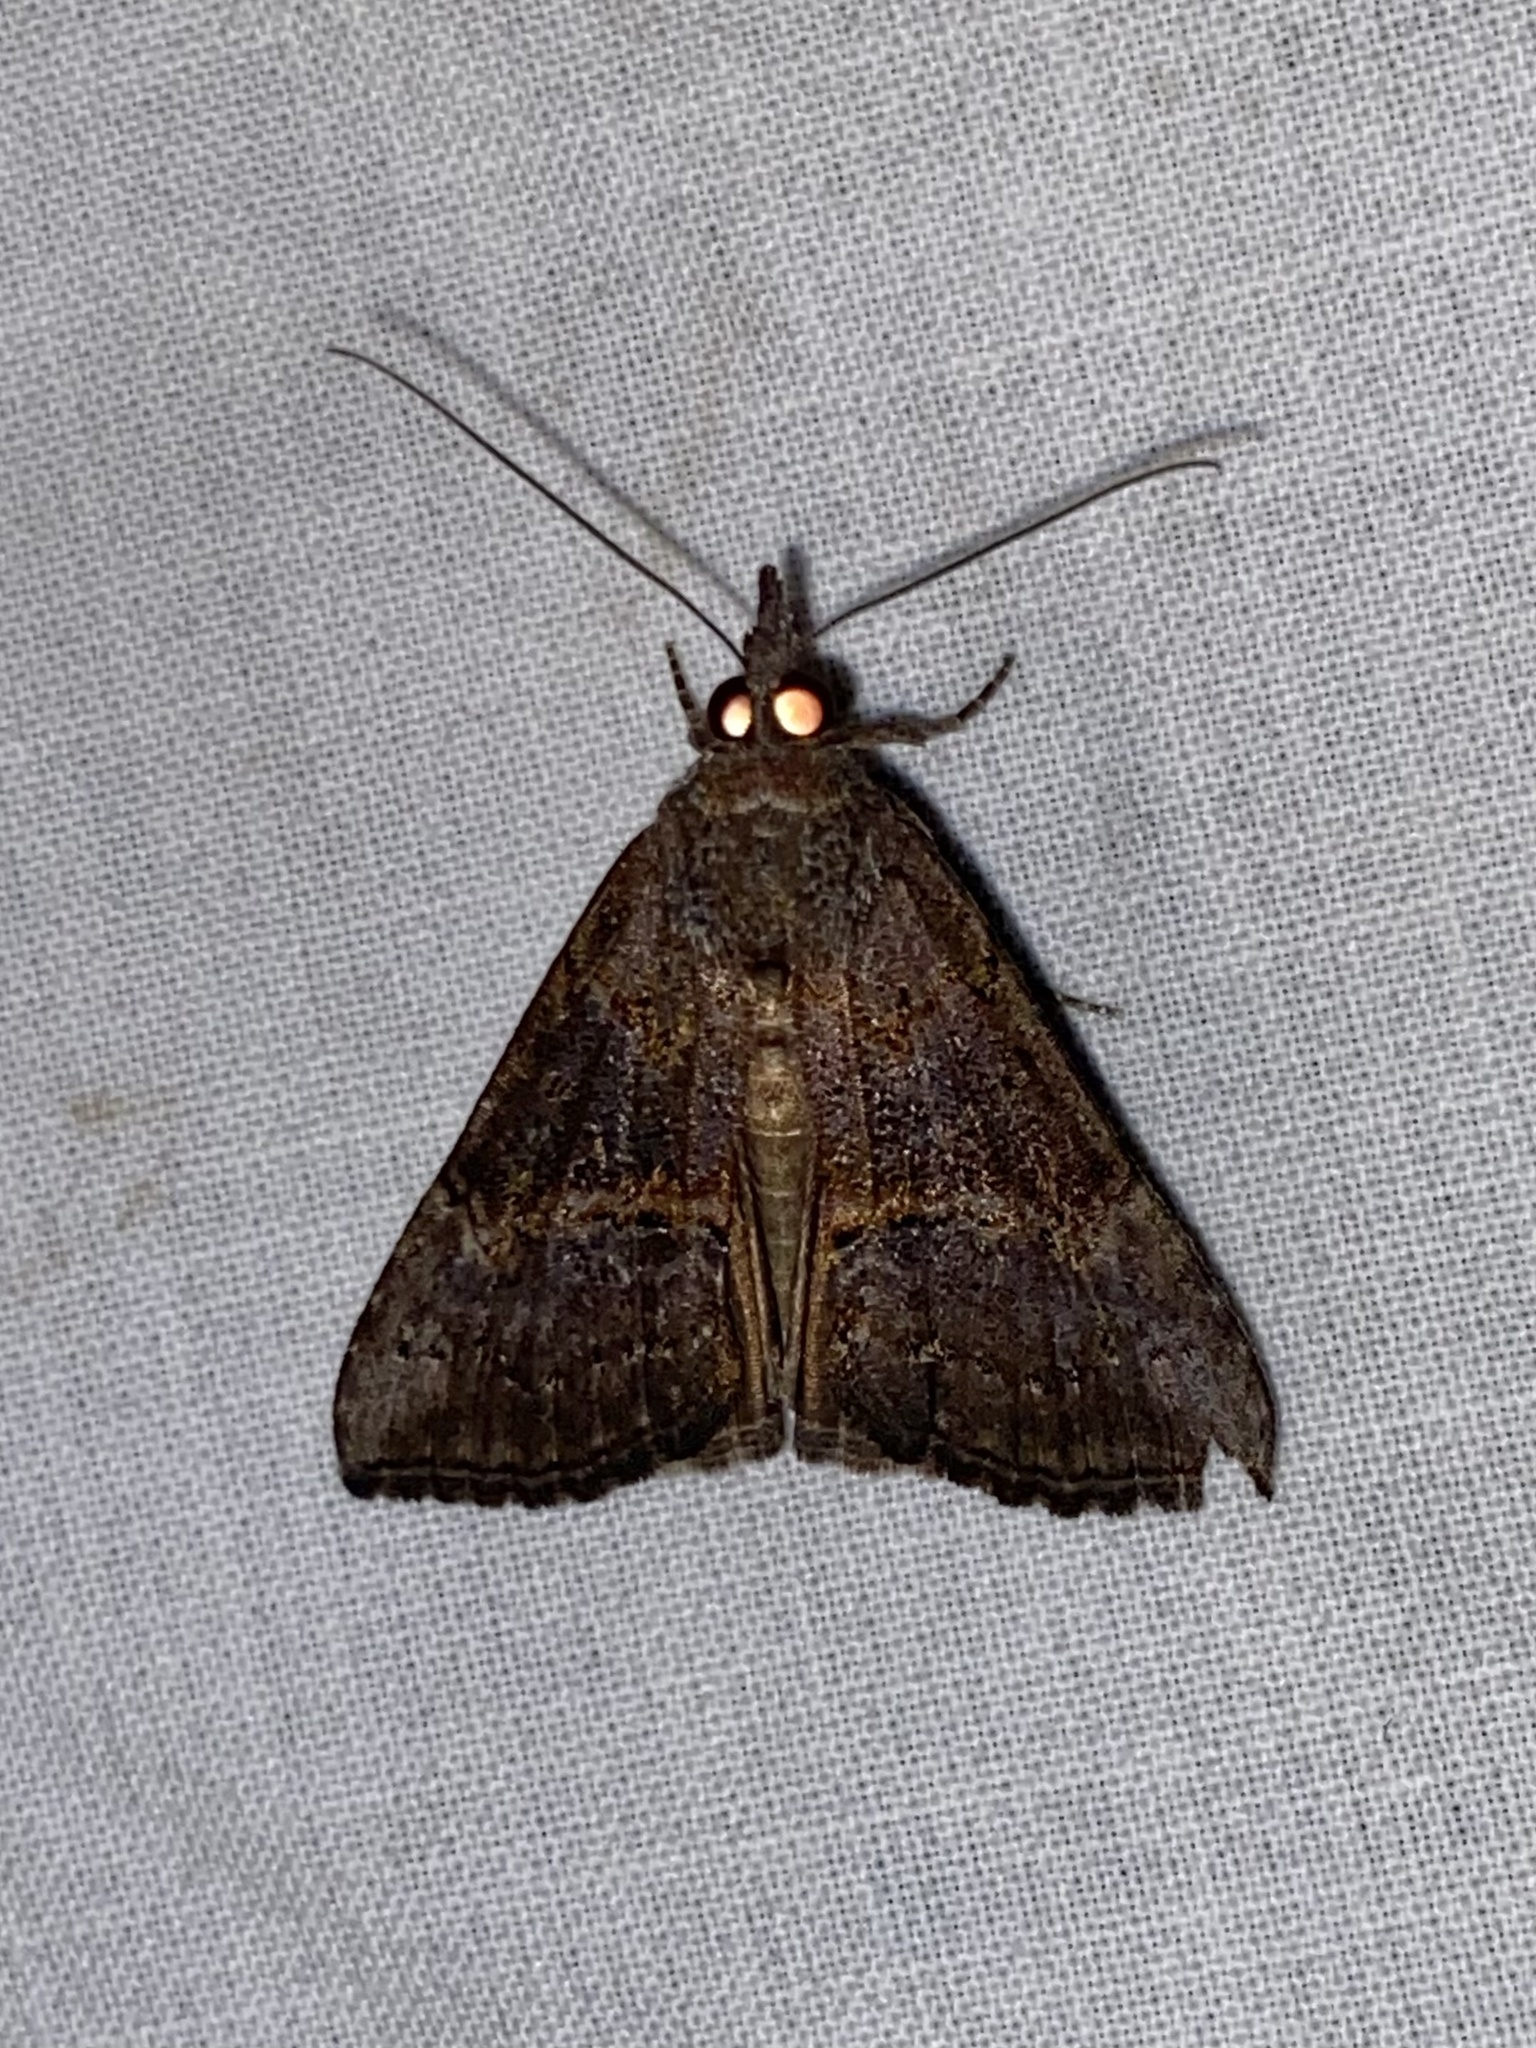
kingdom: Animalia
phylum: Arthropoda
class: Insecta
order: Lepidoptera
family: Erebidae
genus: Hypena
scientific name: Hypena scabra
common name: Green cloverworm
